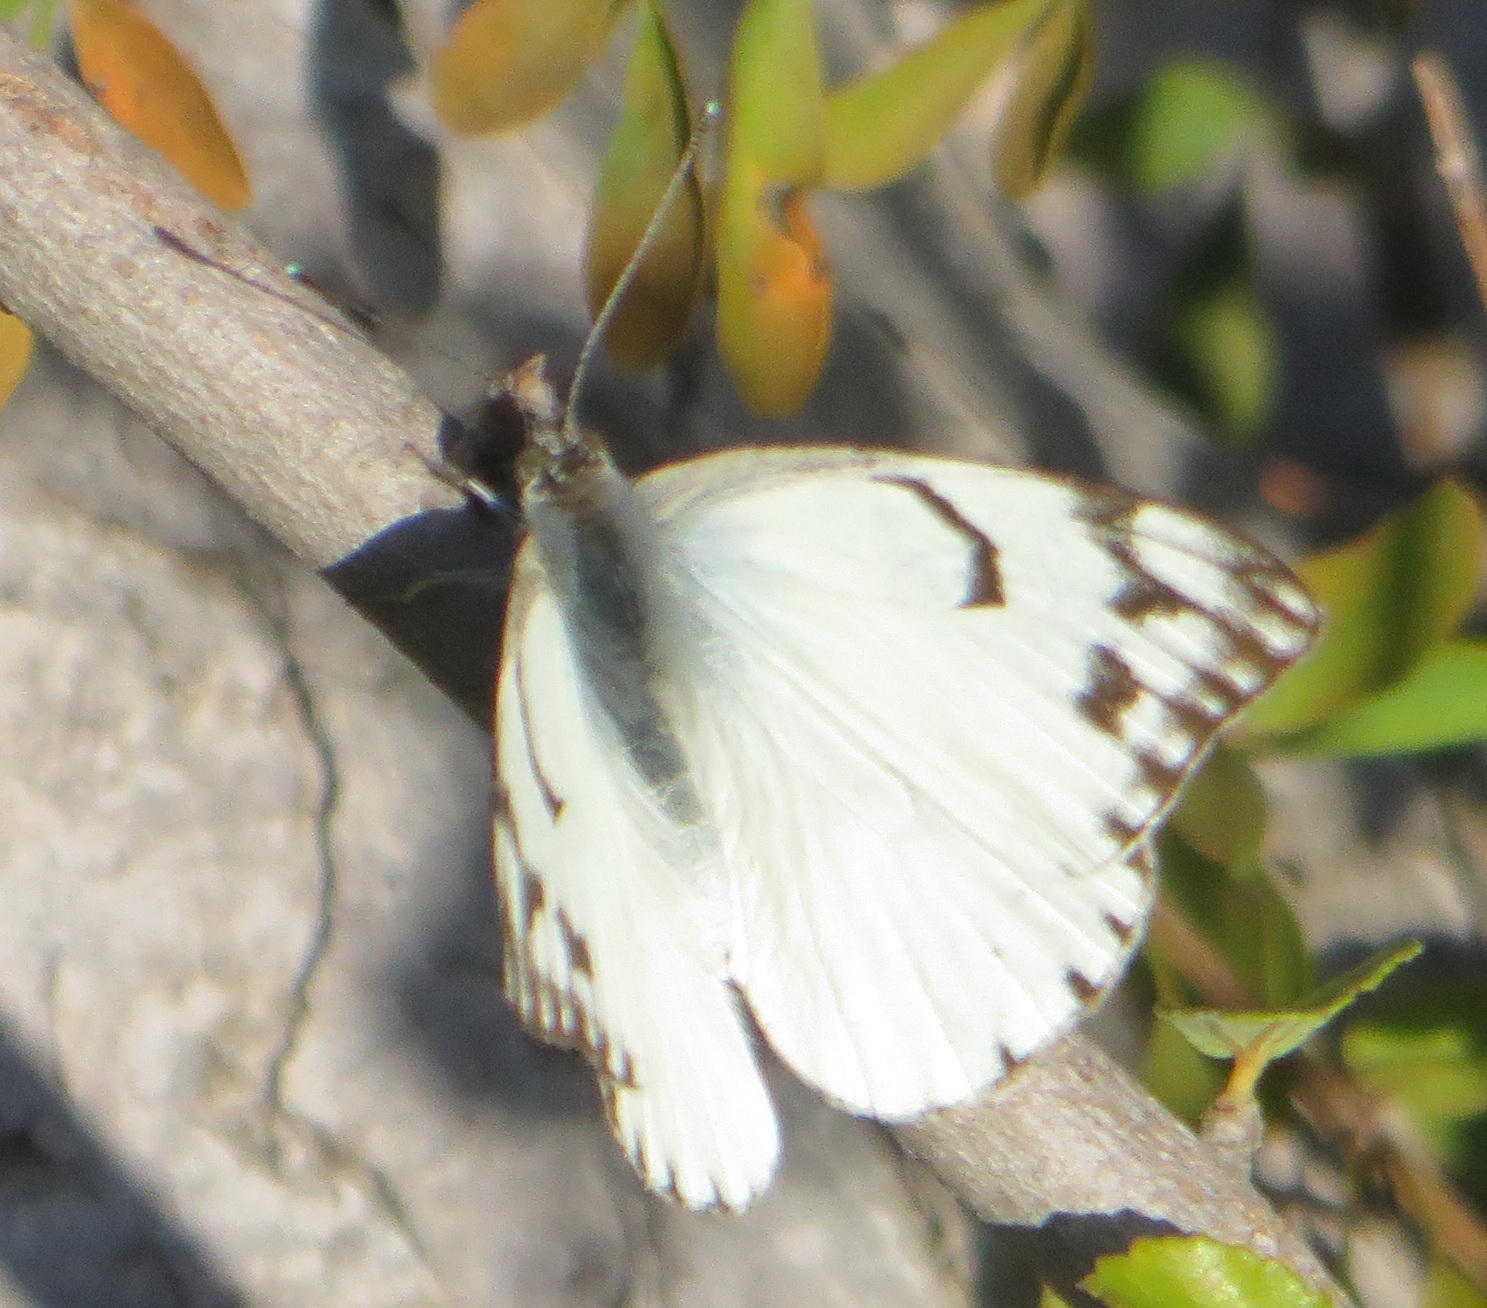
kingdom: Animalia
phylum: Arthropoda
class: Insecta
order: Lepidoptera
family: Pieridae
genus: Belenois
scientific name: Belenois gidica
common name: Pointed caper white
